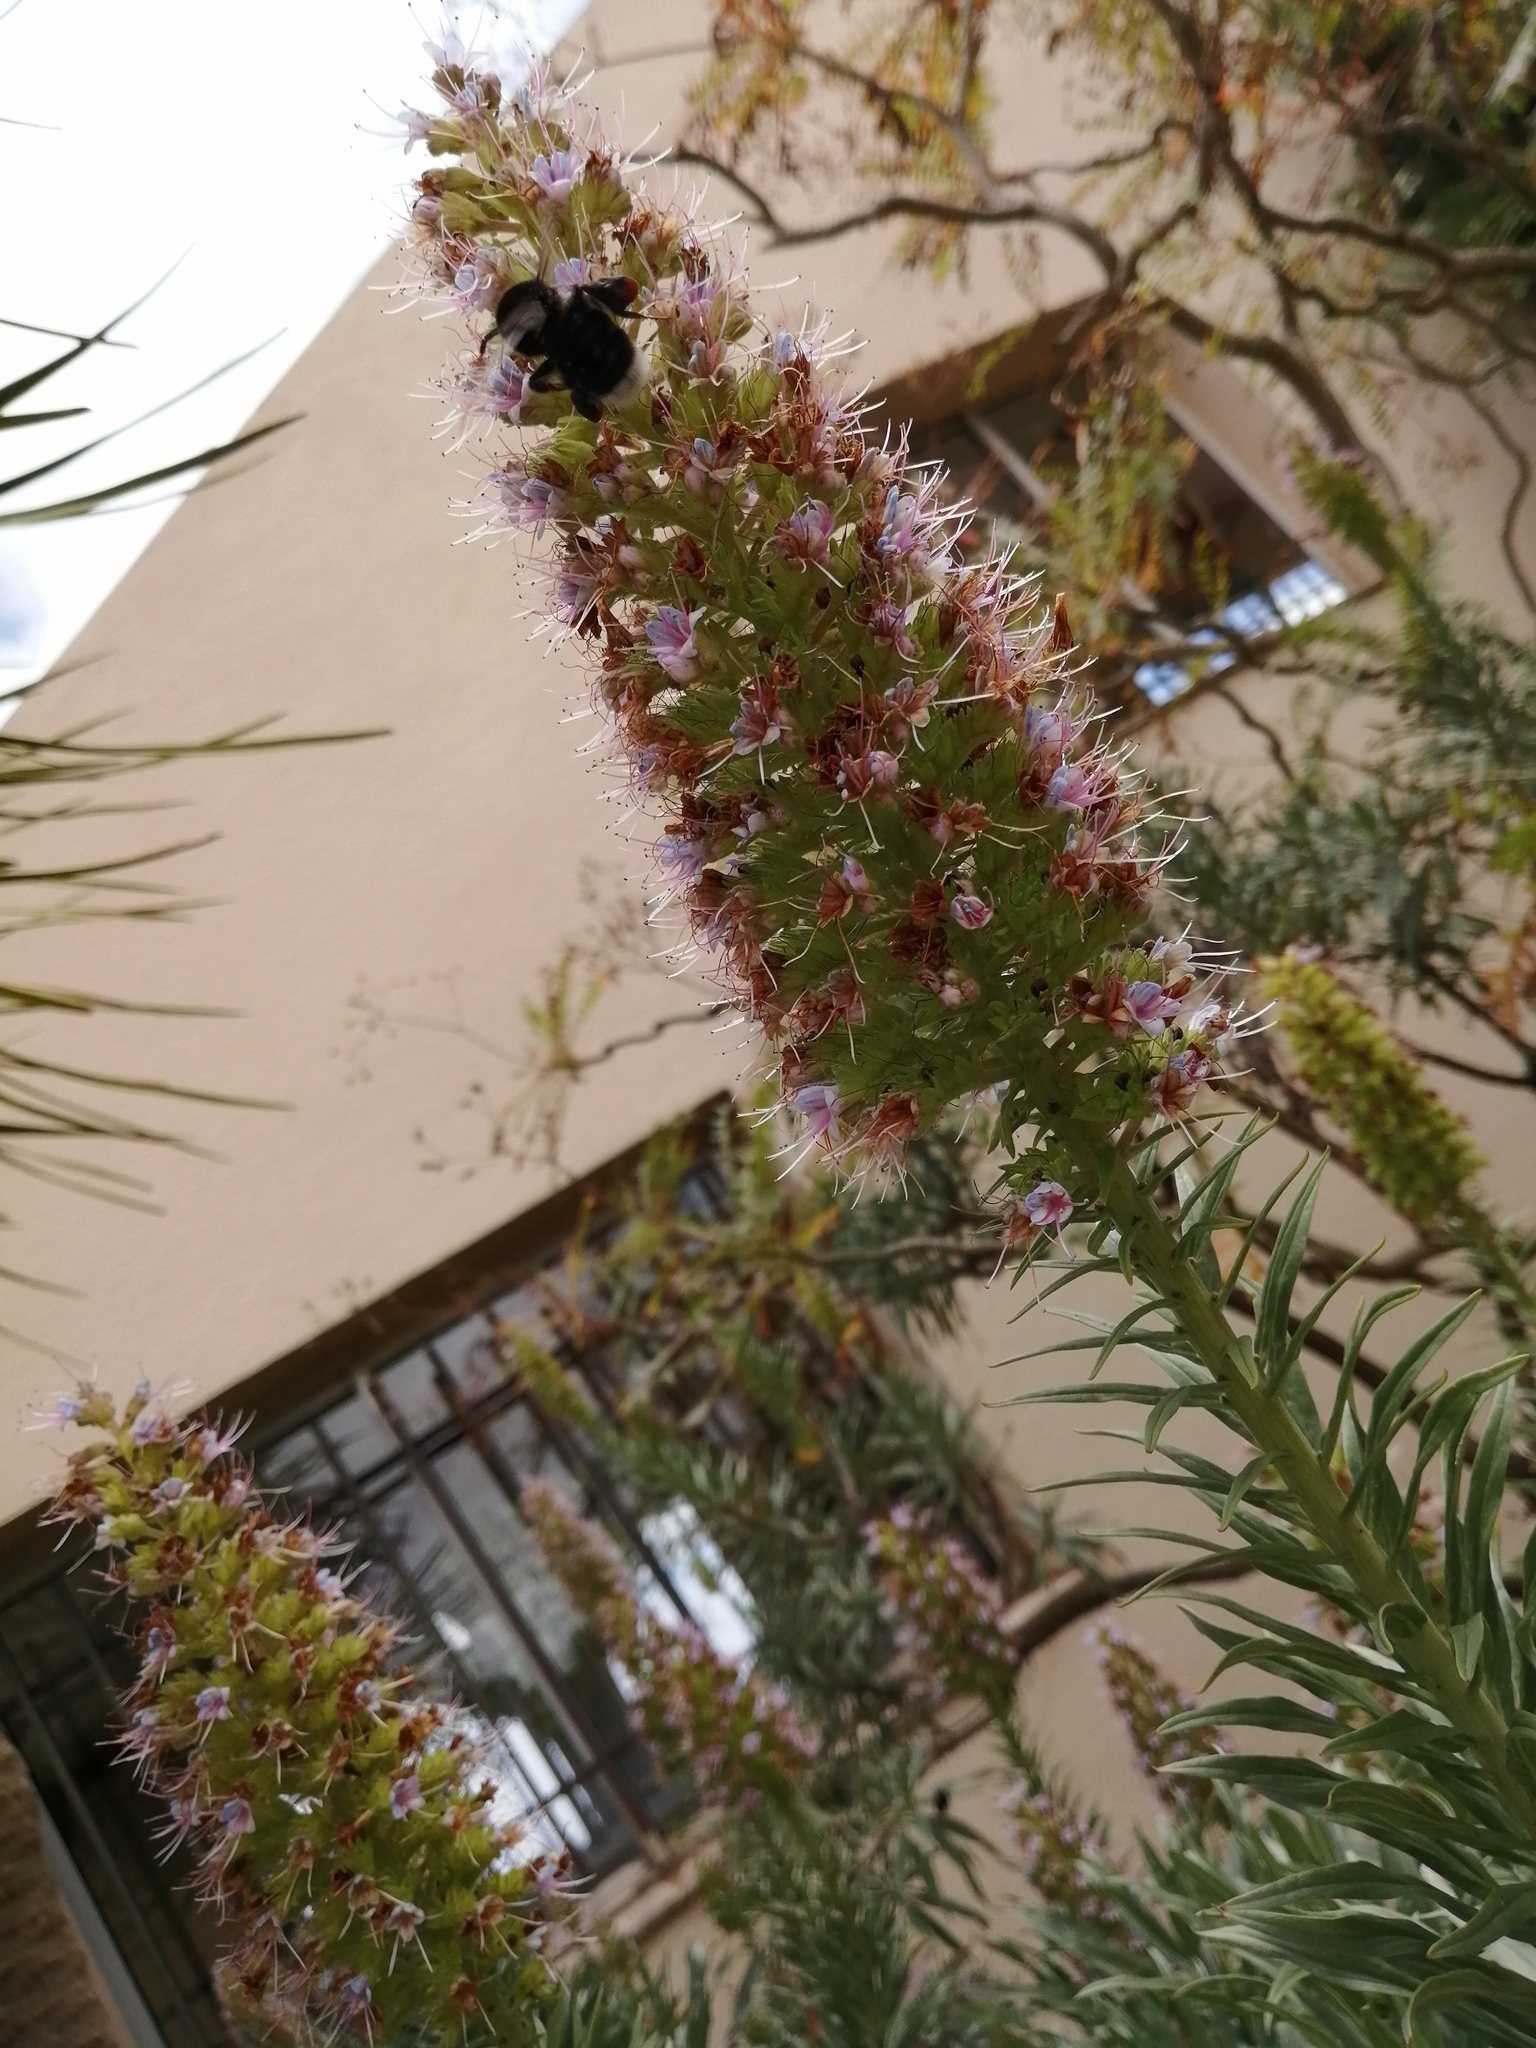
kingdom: Animalia
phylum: Arthropoda
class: Insecta
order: Hymenoptera
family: Apidae
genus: Bombus
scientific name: Bombus terrestris
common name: Buff-tailed bumblebee
